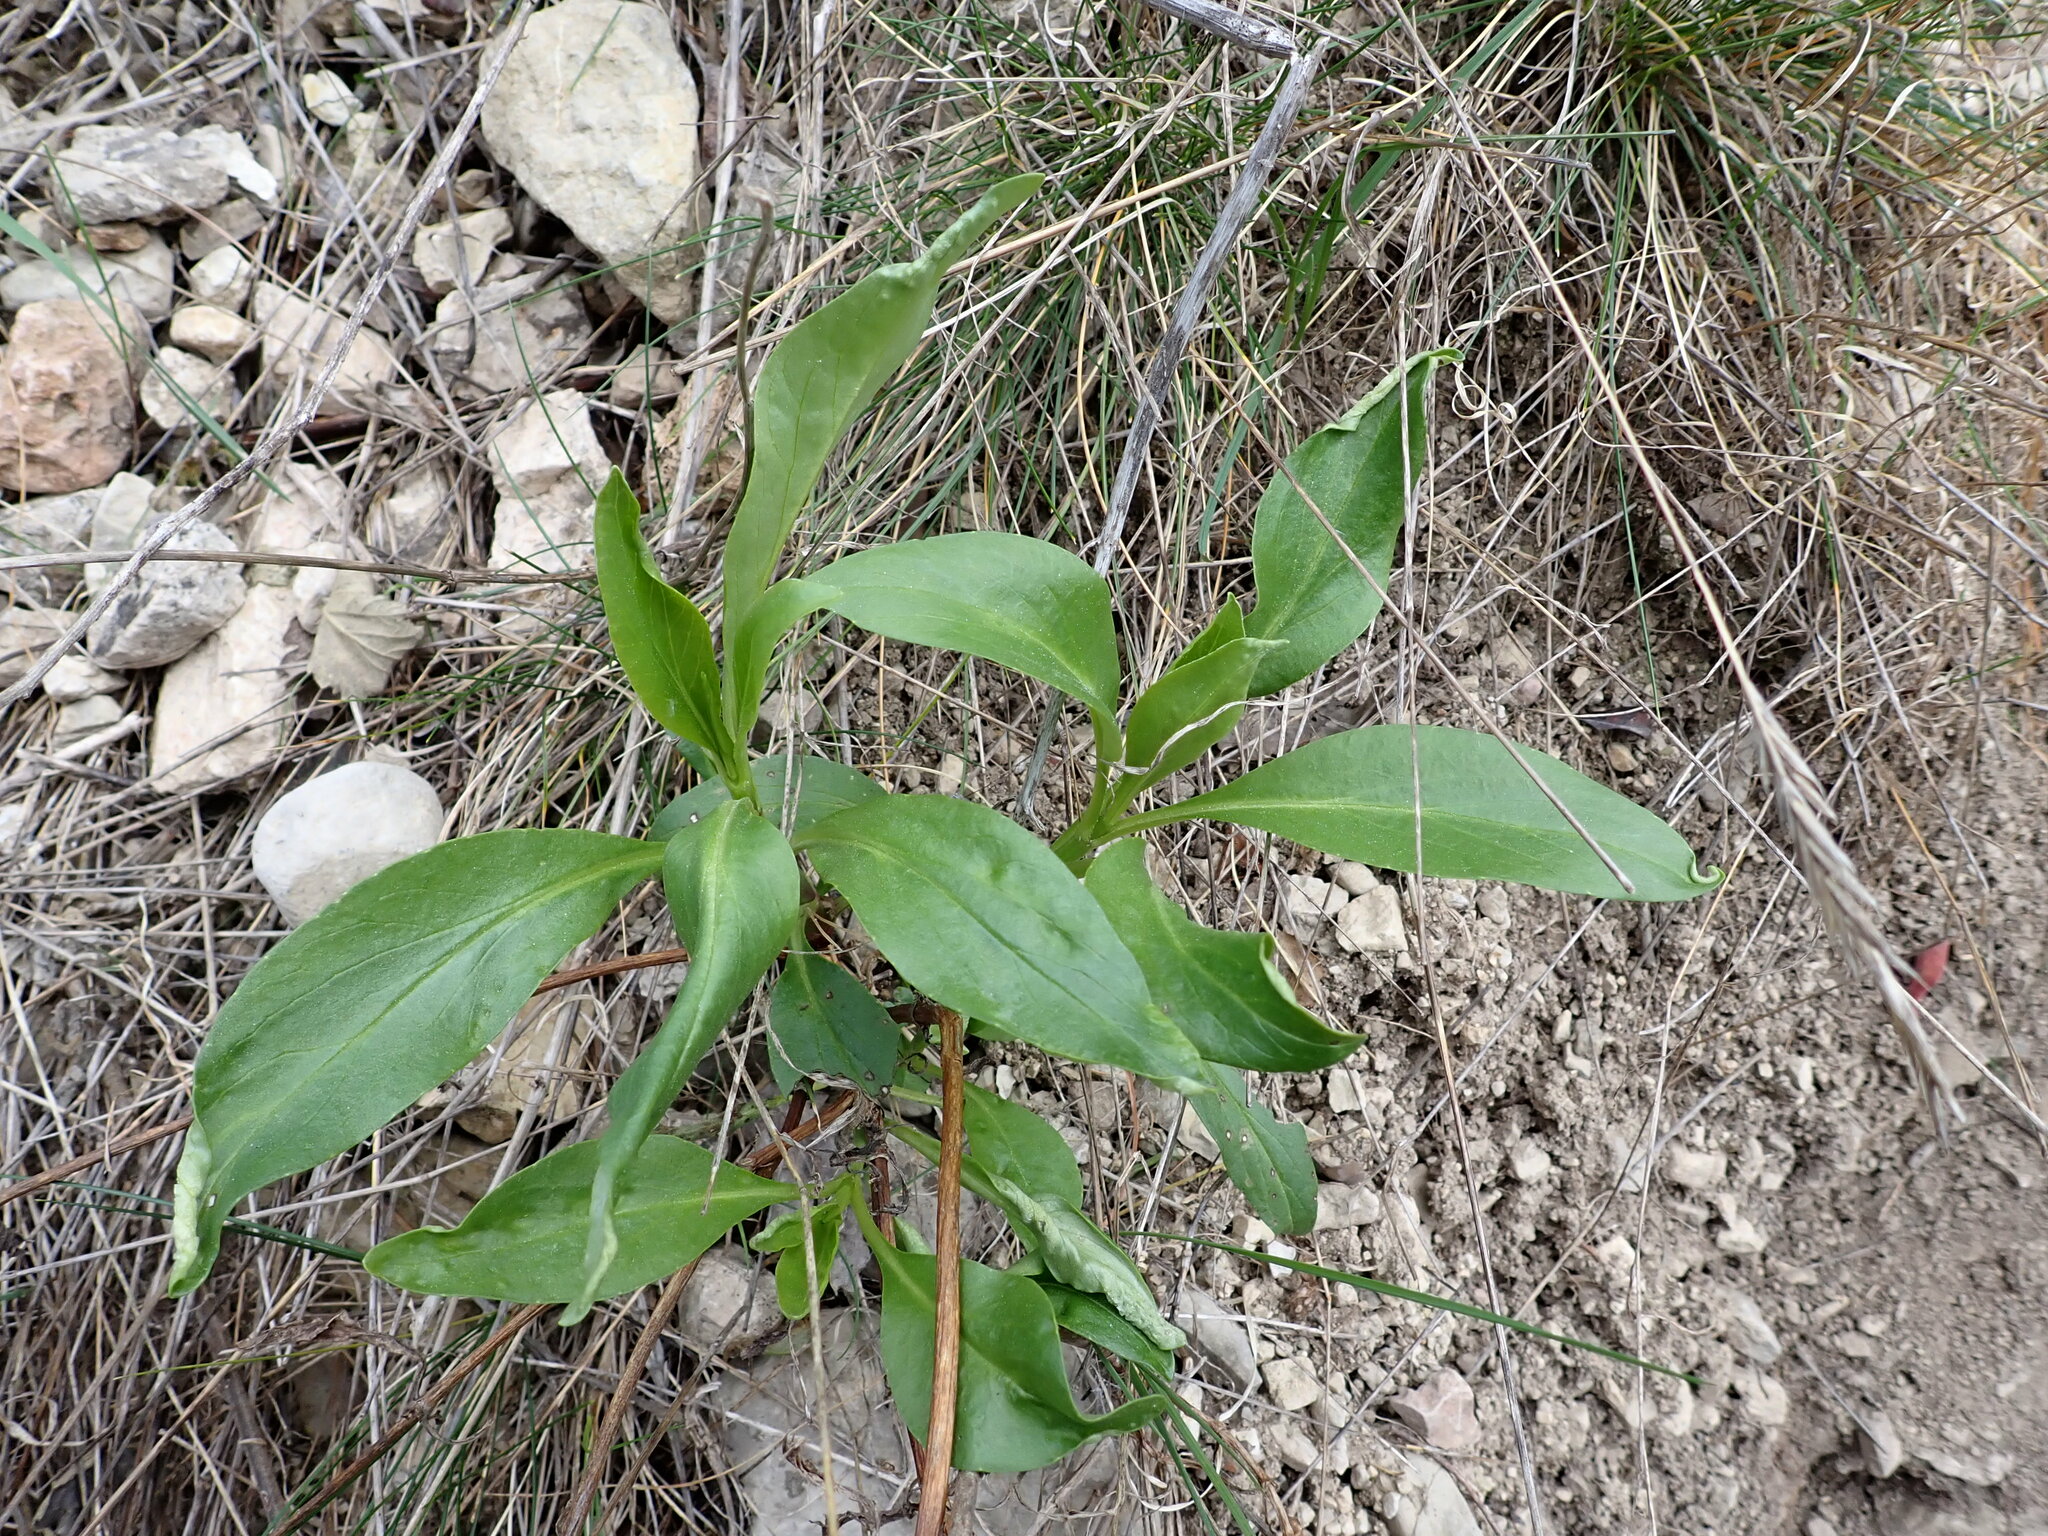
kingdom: Plantae
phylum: Tracheophyta
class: Magnoliopsida
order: Dipsacales
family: Caprifoliaceae
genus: Centranthus
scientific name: Centranthus ruber
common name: Red valerian
